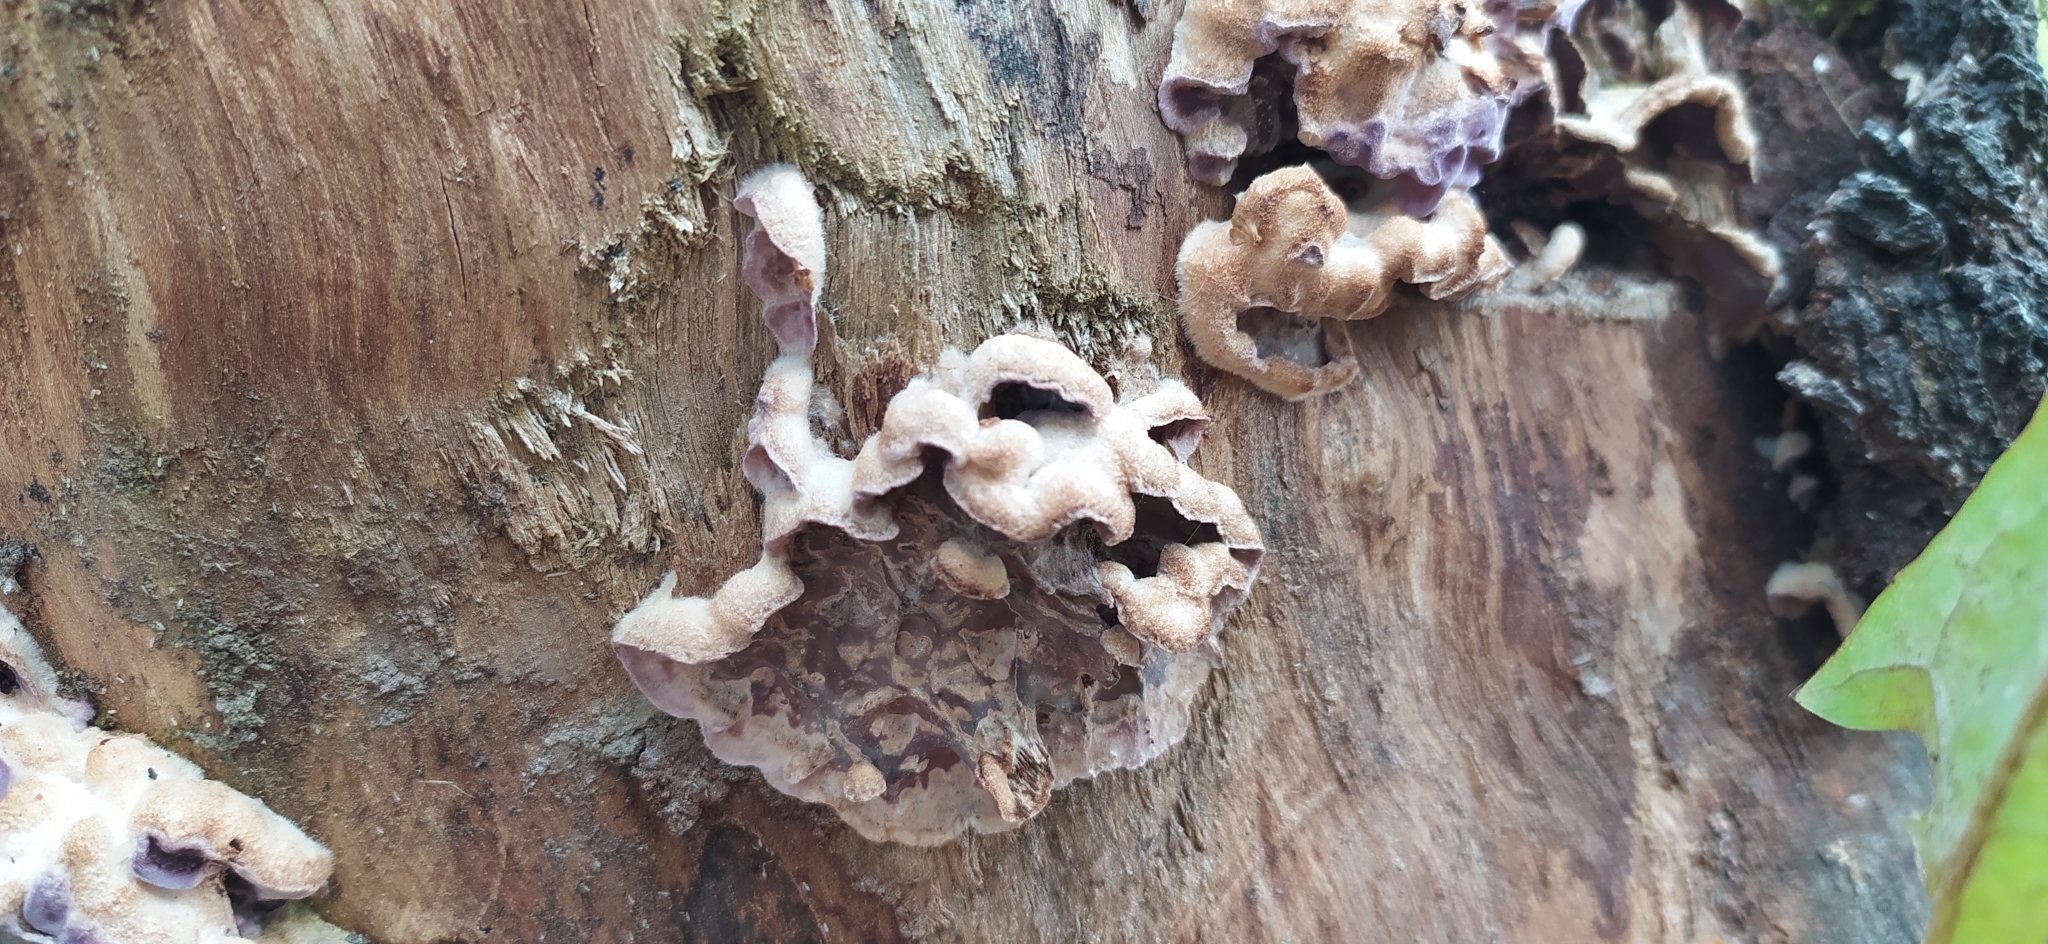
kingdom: Fungi
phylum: Basidiomycota
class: Agaricomycetes
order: Agaricales
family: Cyphellaceae
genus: Chondrostereum
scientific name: Chondrostereum purpureum
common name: Silver leaf disease
